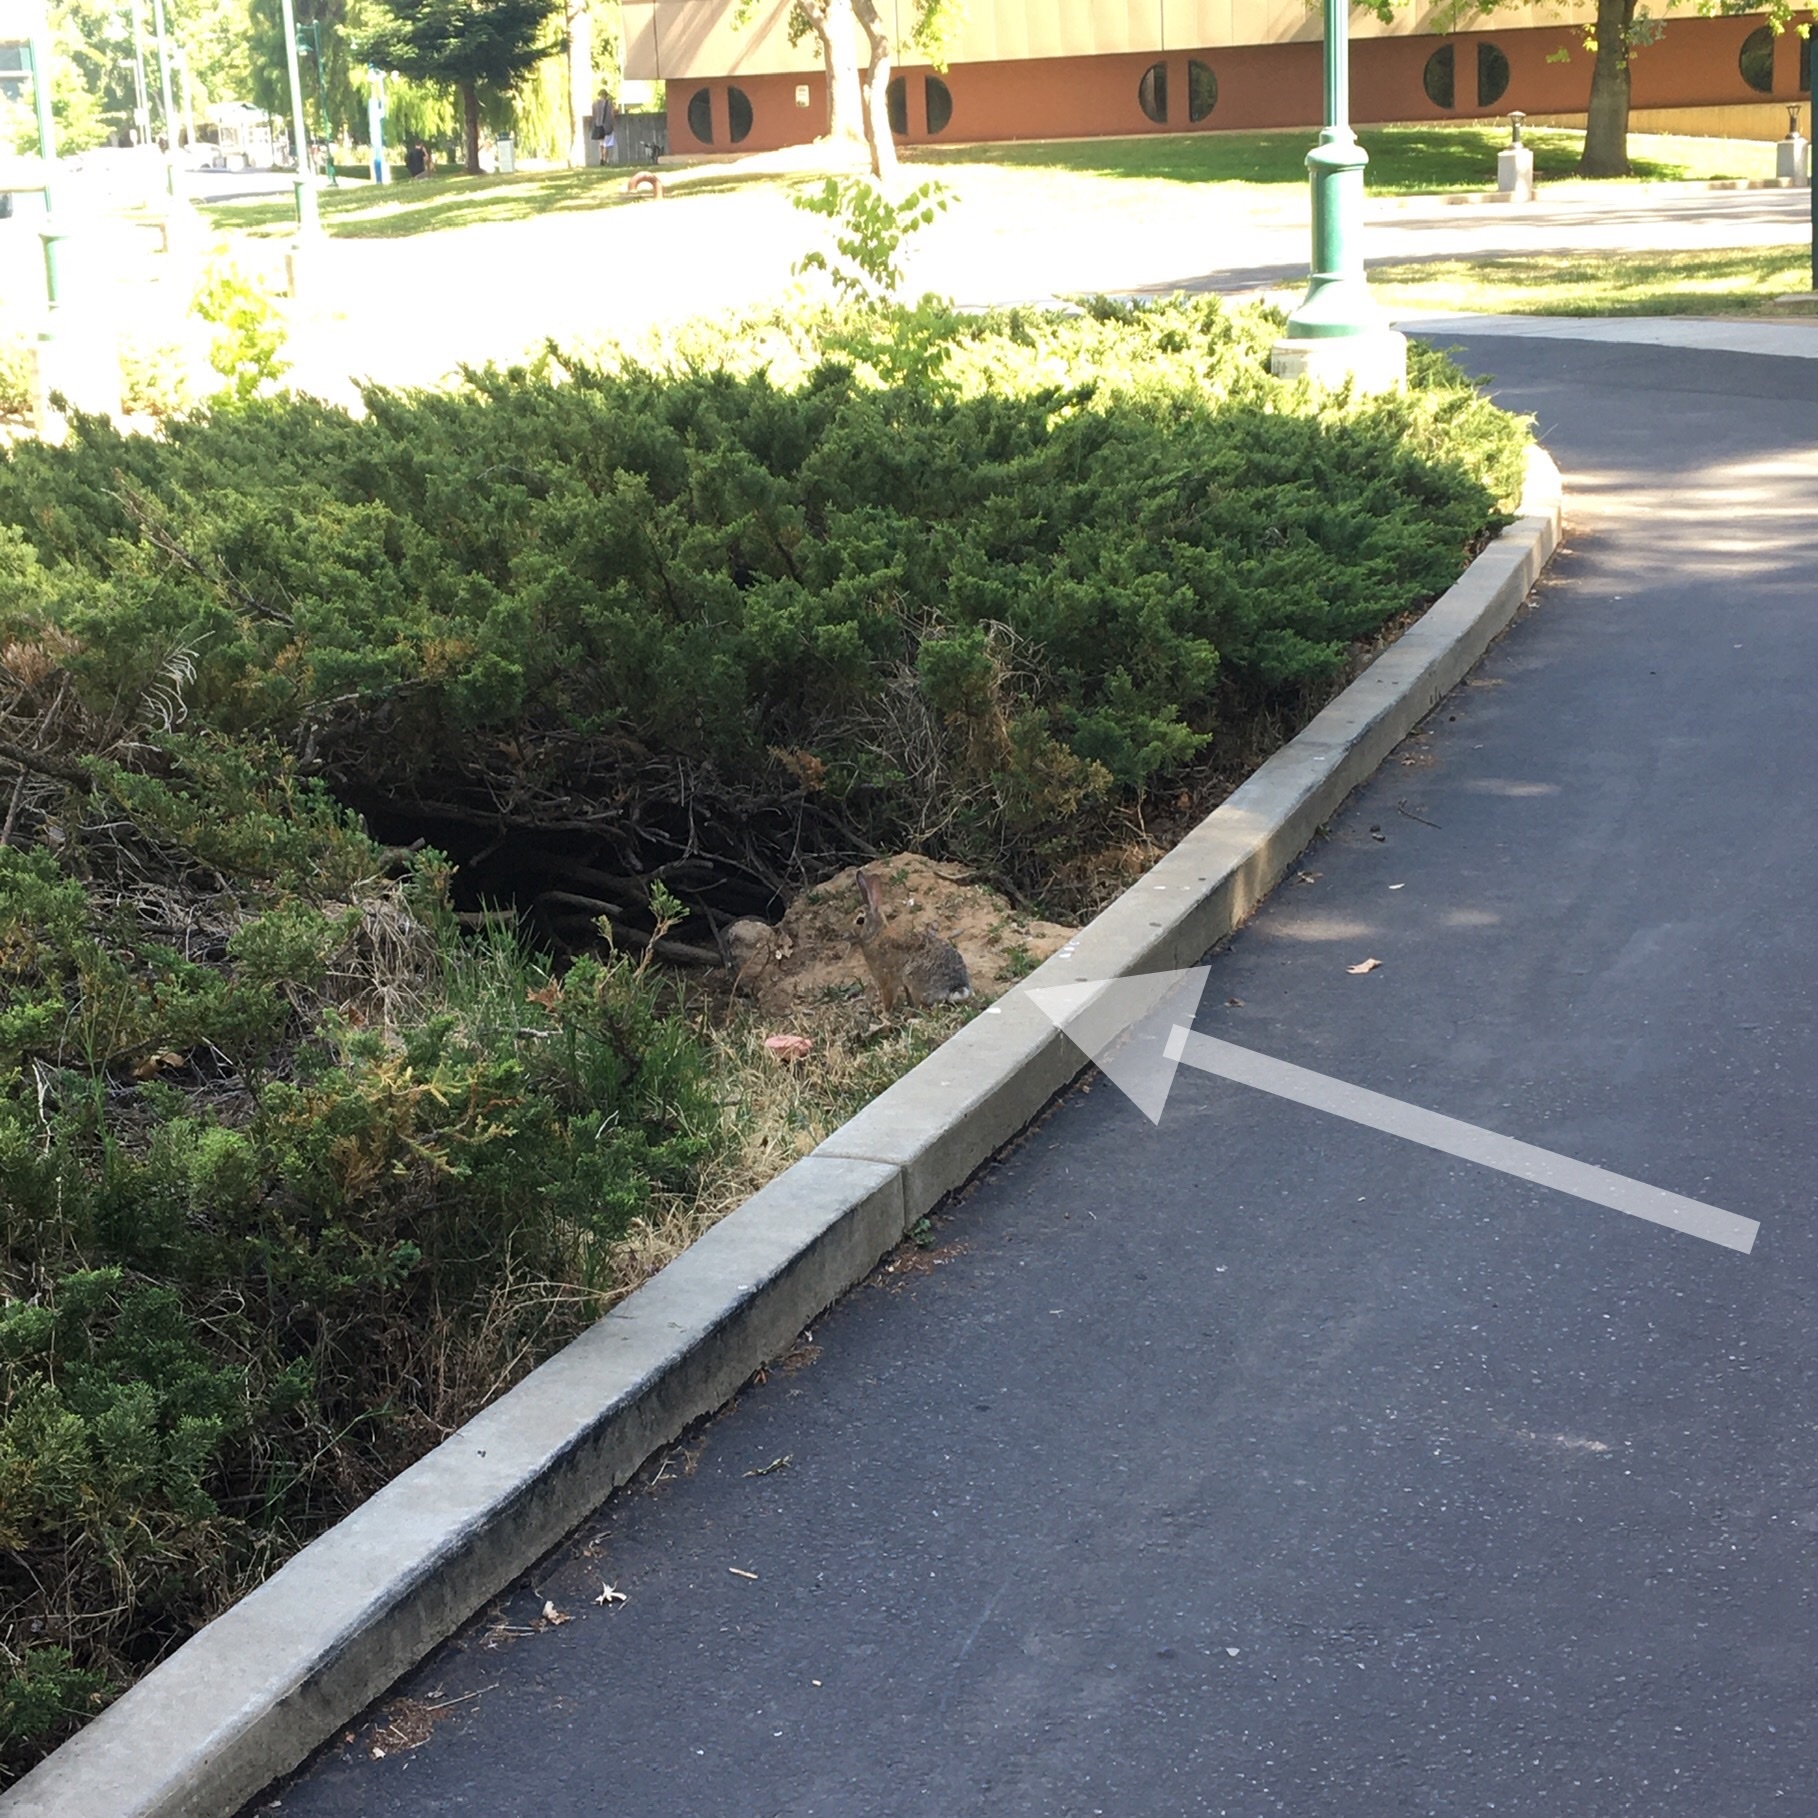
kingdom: Animalia
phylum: Chordata
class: Mammalia
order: Lagomorpha
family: Leporidae
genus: Sylvilagus
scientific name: Sylvilagus audubonii
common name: Desert cottontail
